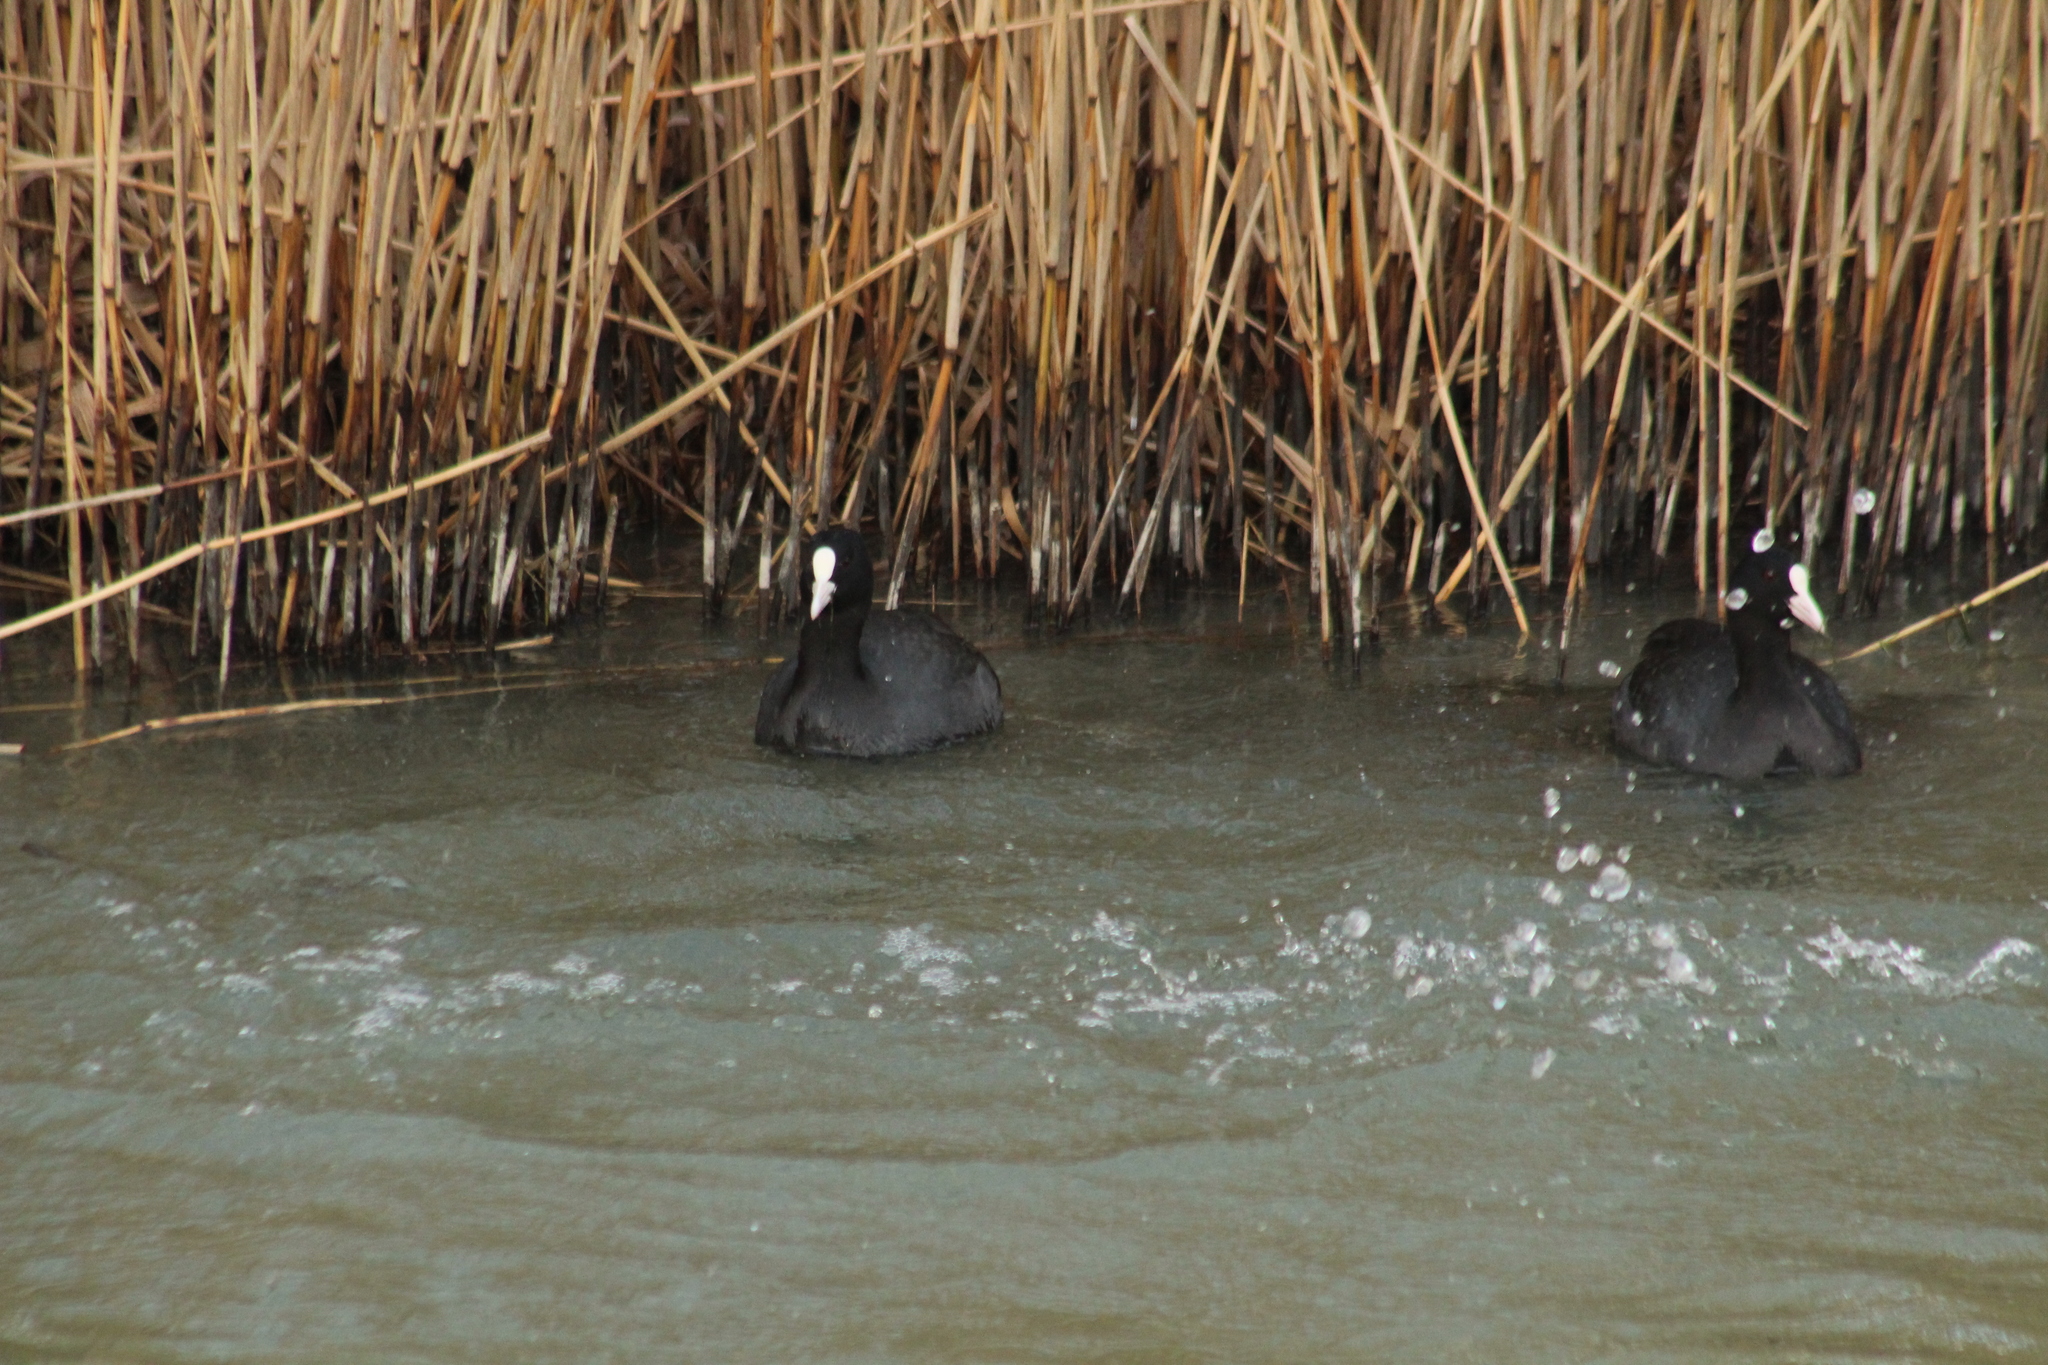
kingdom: Animalia
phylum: Chordata
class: Aves
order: Gruiformes
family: Rallidae
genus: Fulica
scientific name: Fulica atra
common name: Eurasian coot
